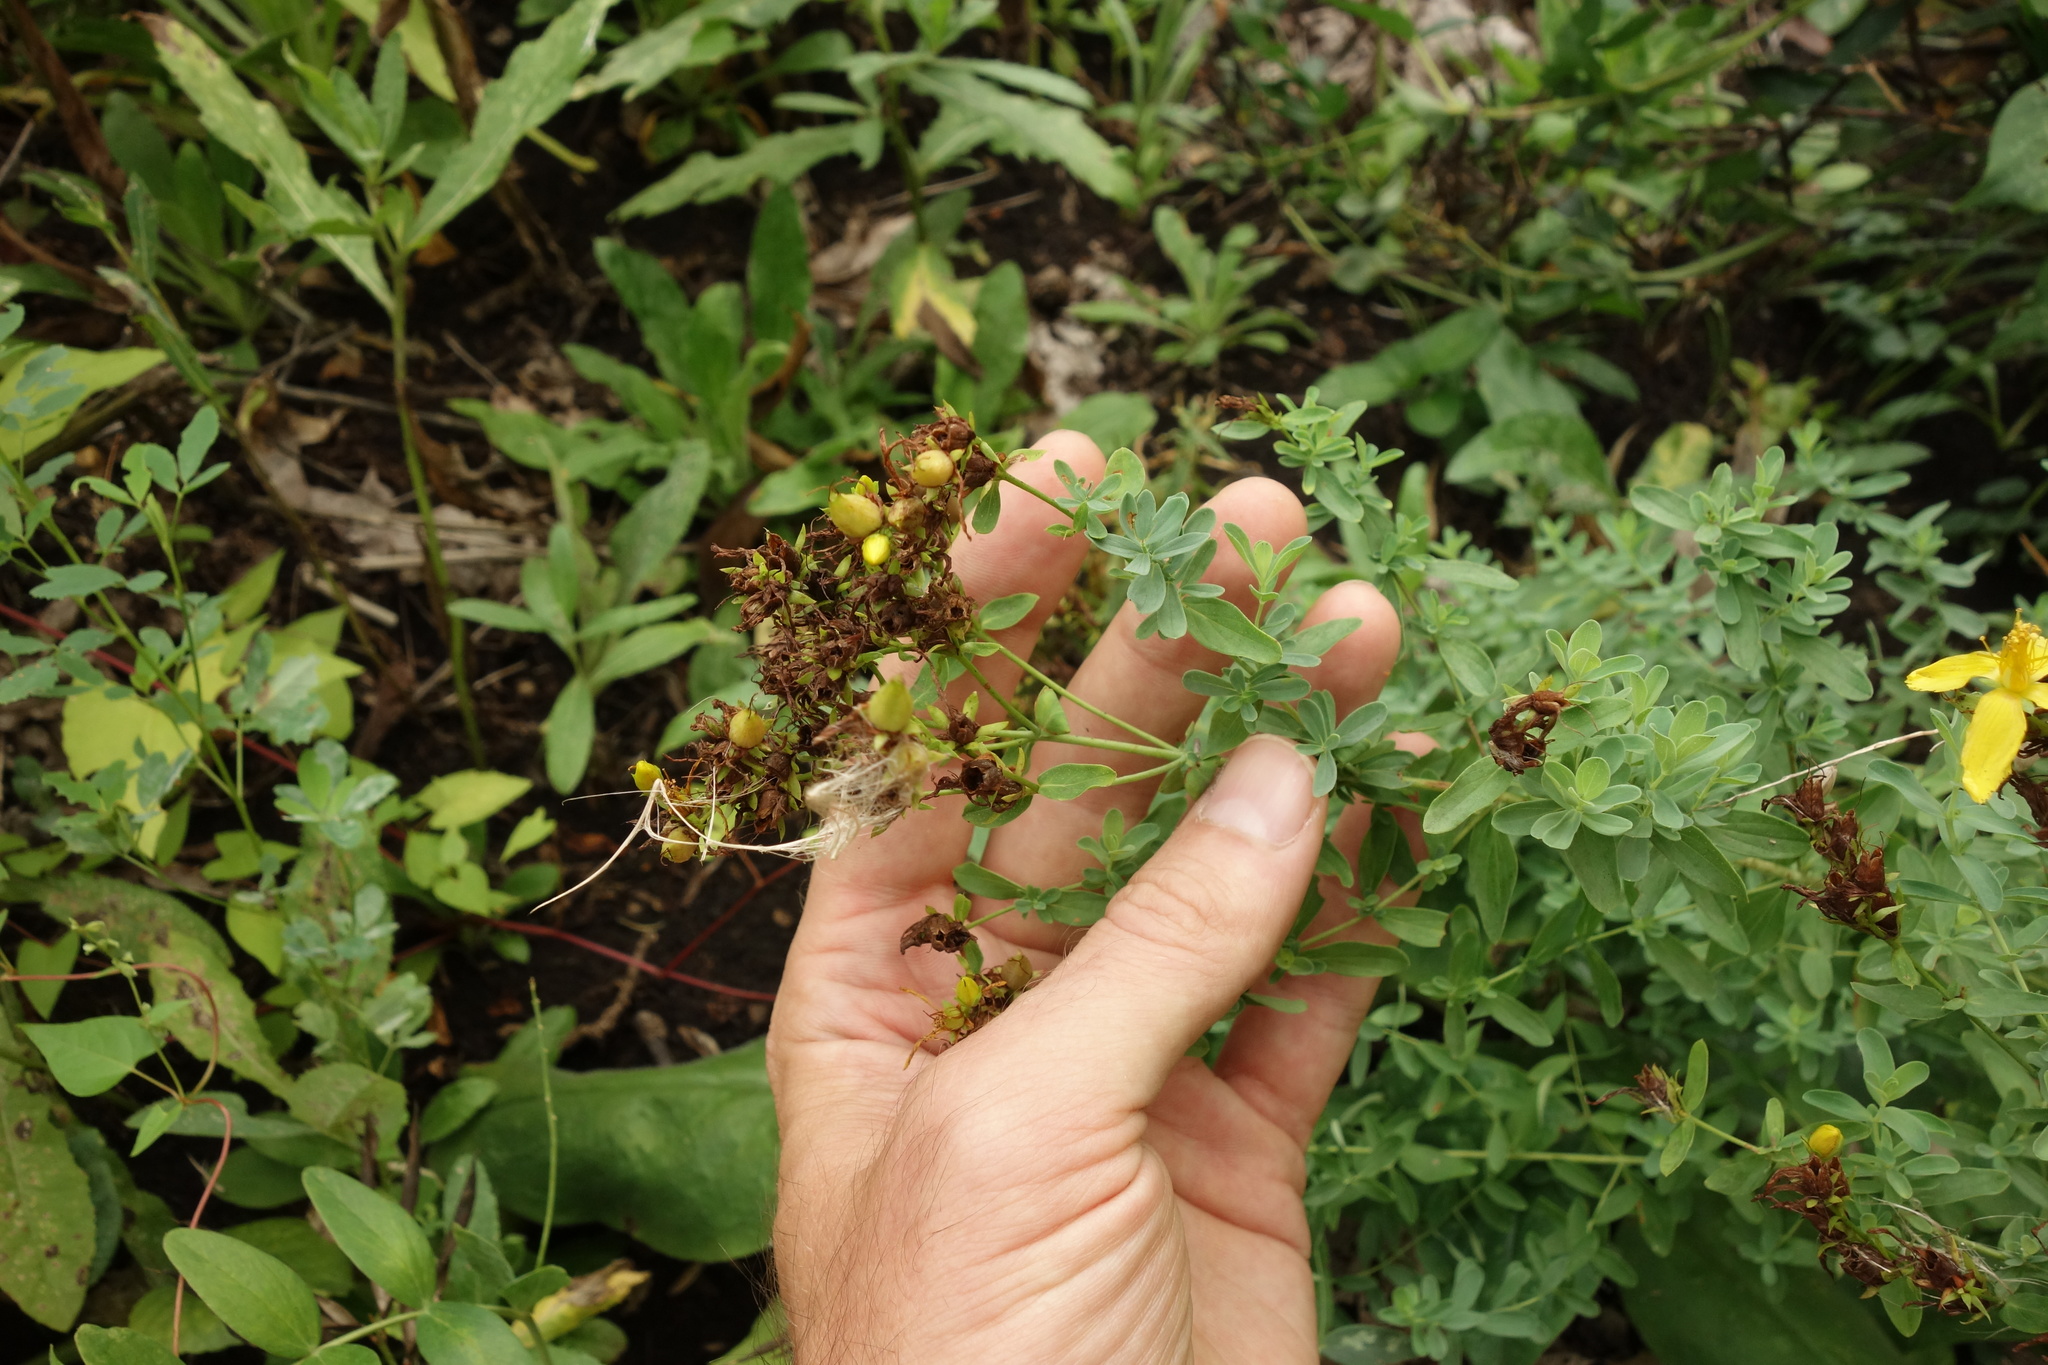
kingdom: Plantae
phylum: Tracheophyta
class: Magnoliopsida
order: Malpighiales
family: Hypericaceae
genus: Hypericum
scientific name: Hypericum perforatum
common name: Common st. johnswort
